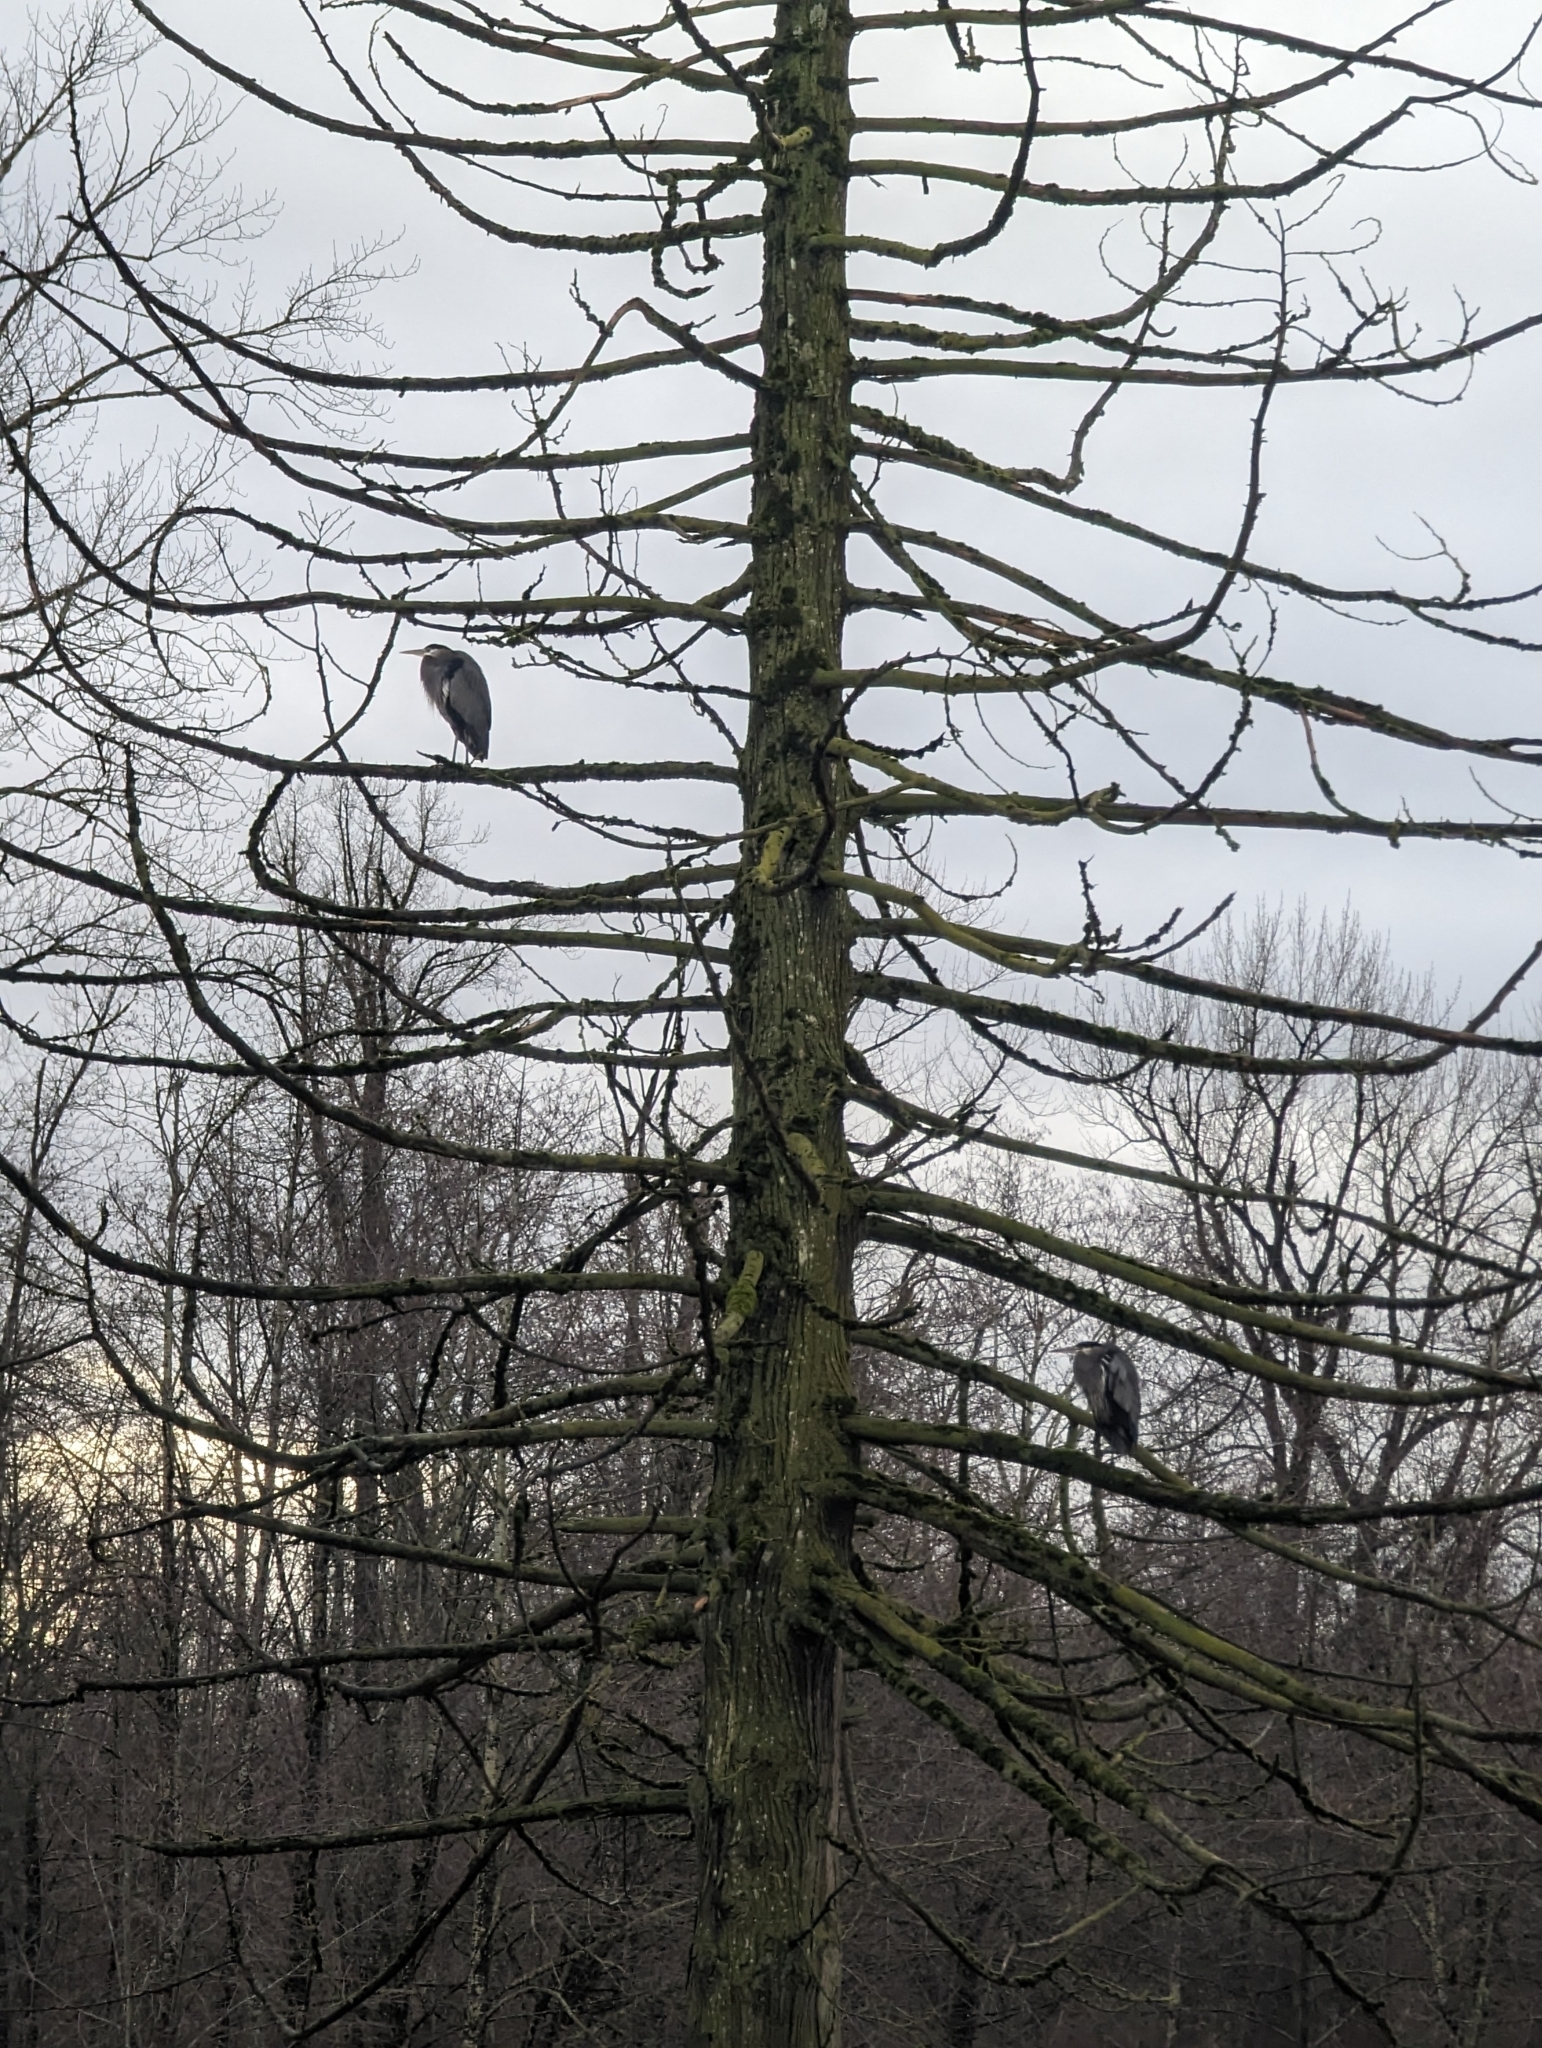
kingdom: Animalia
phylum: Chordata
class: Aves
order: Pelecaniformes
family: Ardeidae
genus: Ardea
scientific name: Ardea herodias
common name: Great blue heron
